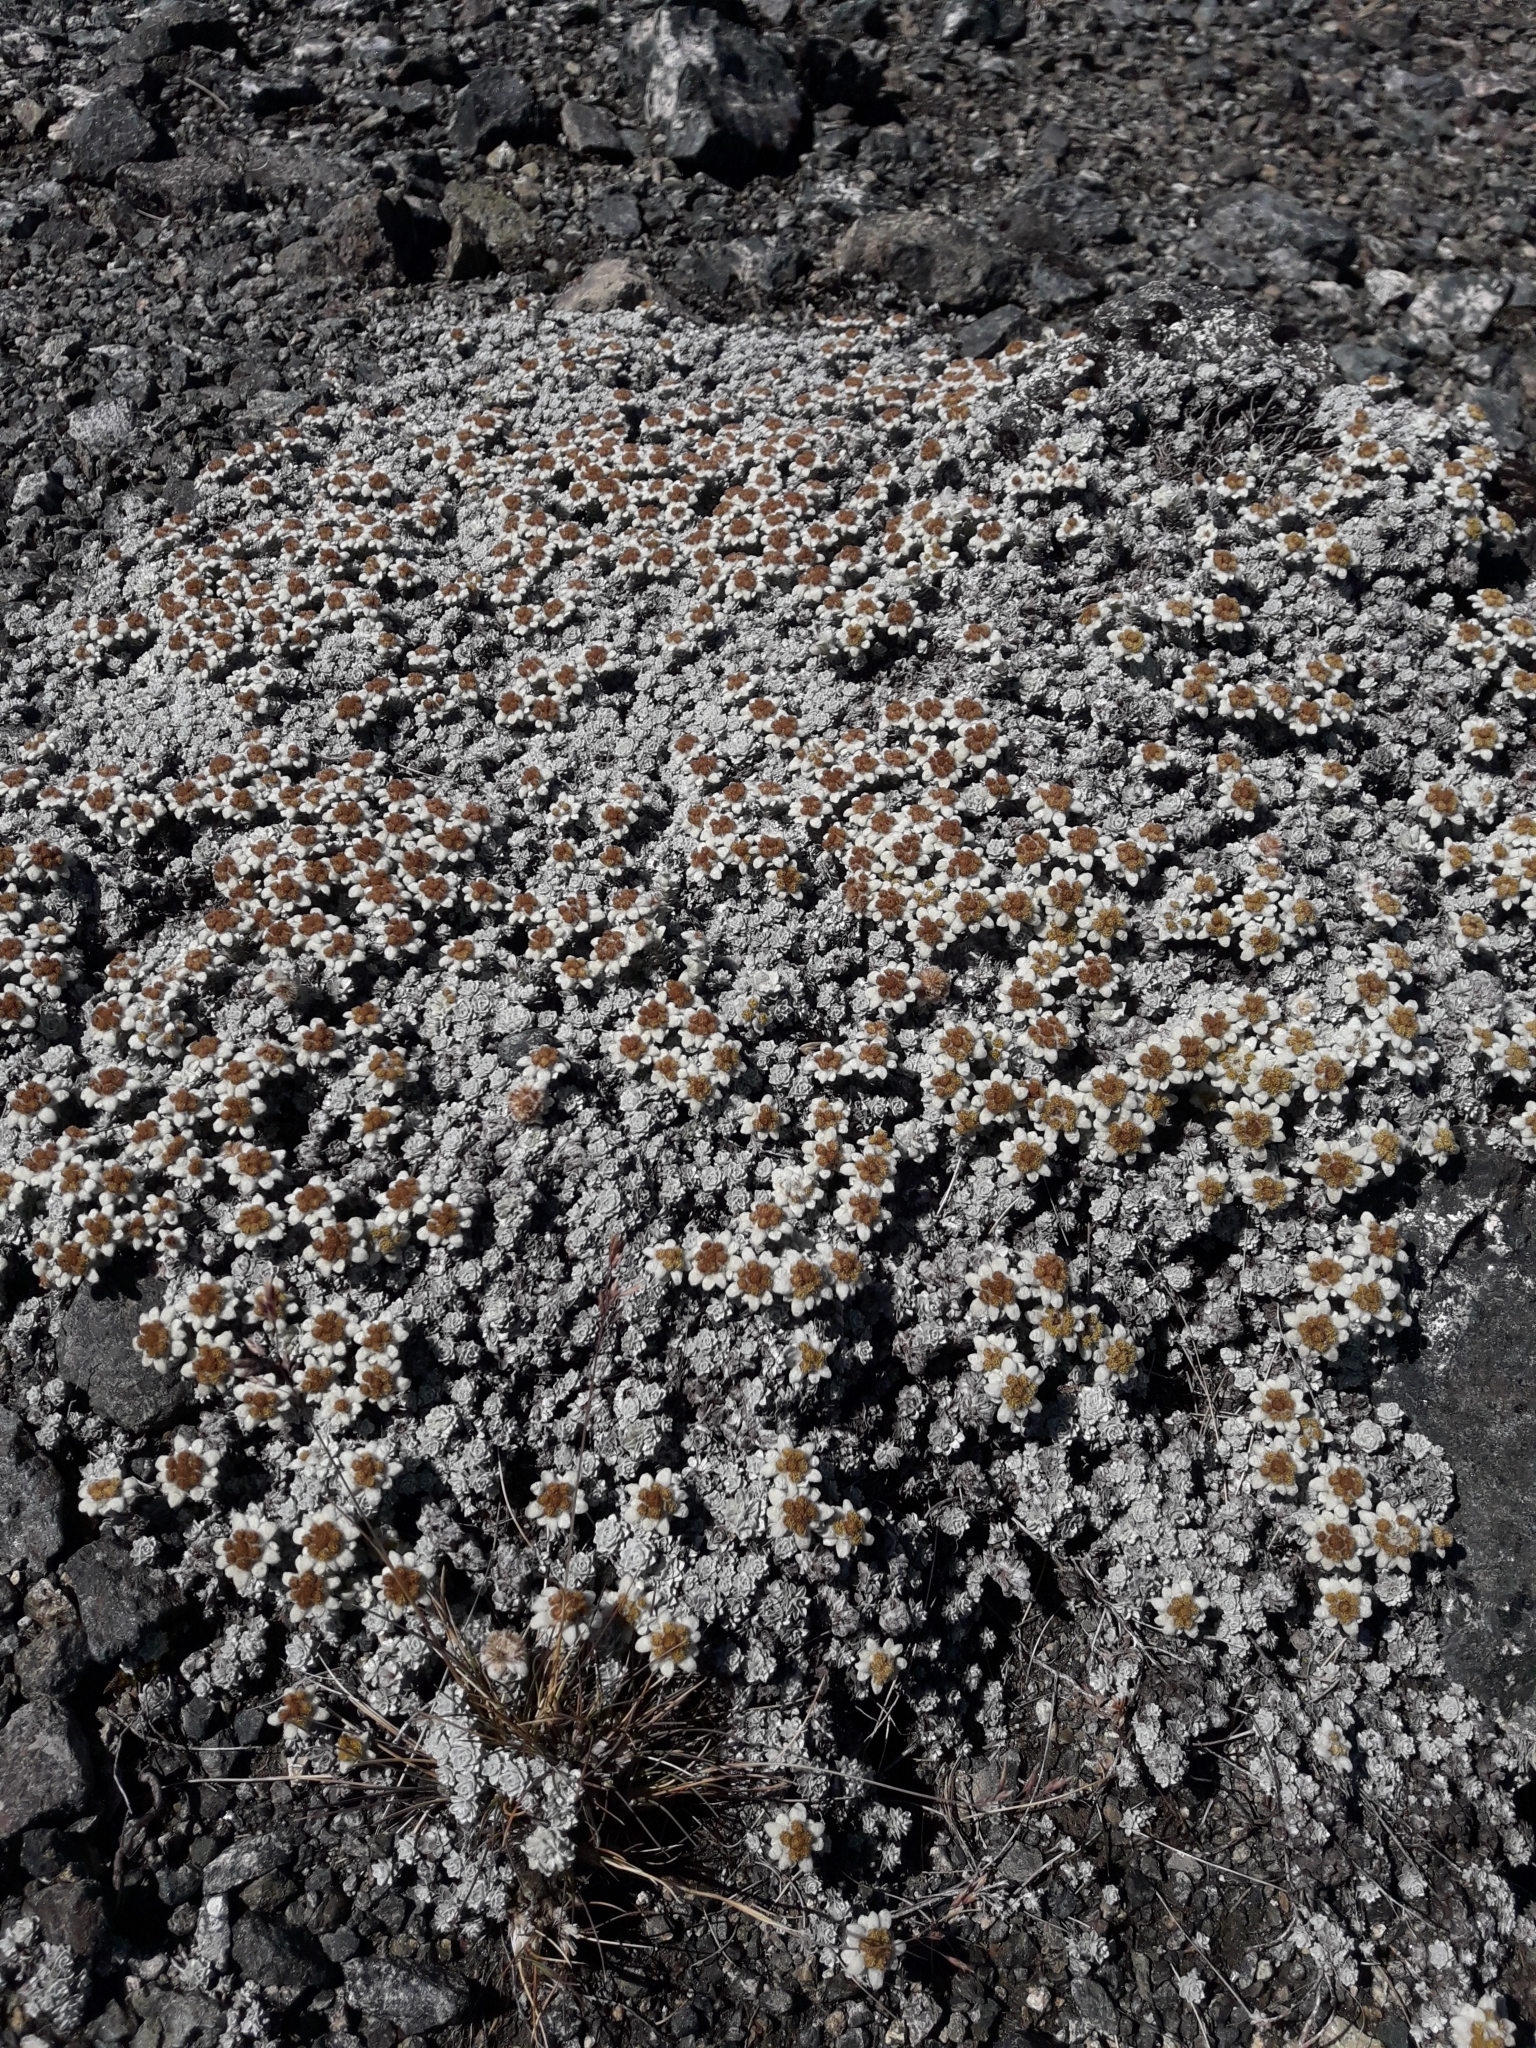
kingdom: Plantae
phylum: Tracheophyta
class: Magnoliopsida
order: Asterales
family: Asteraceae
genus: Leucogenes
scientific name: Leucogenes grandiceps
